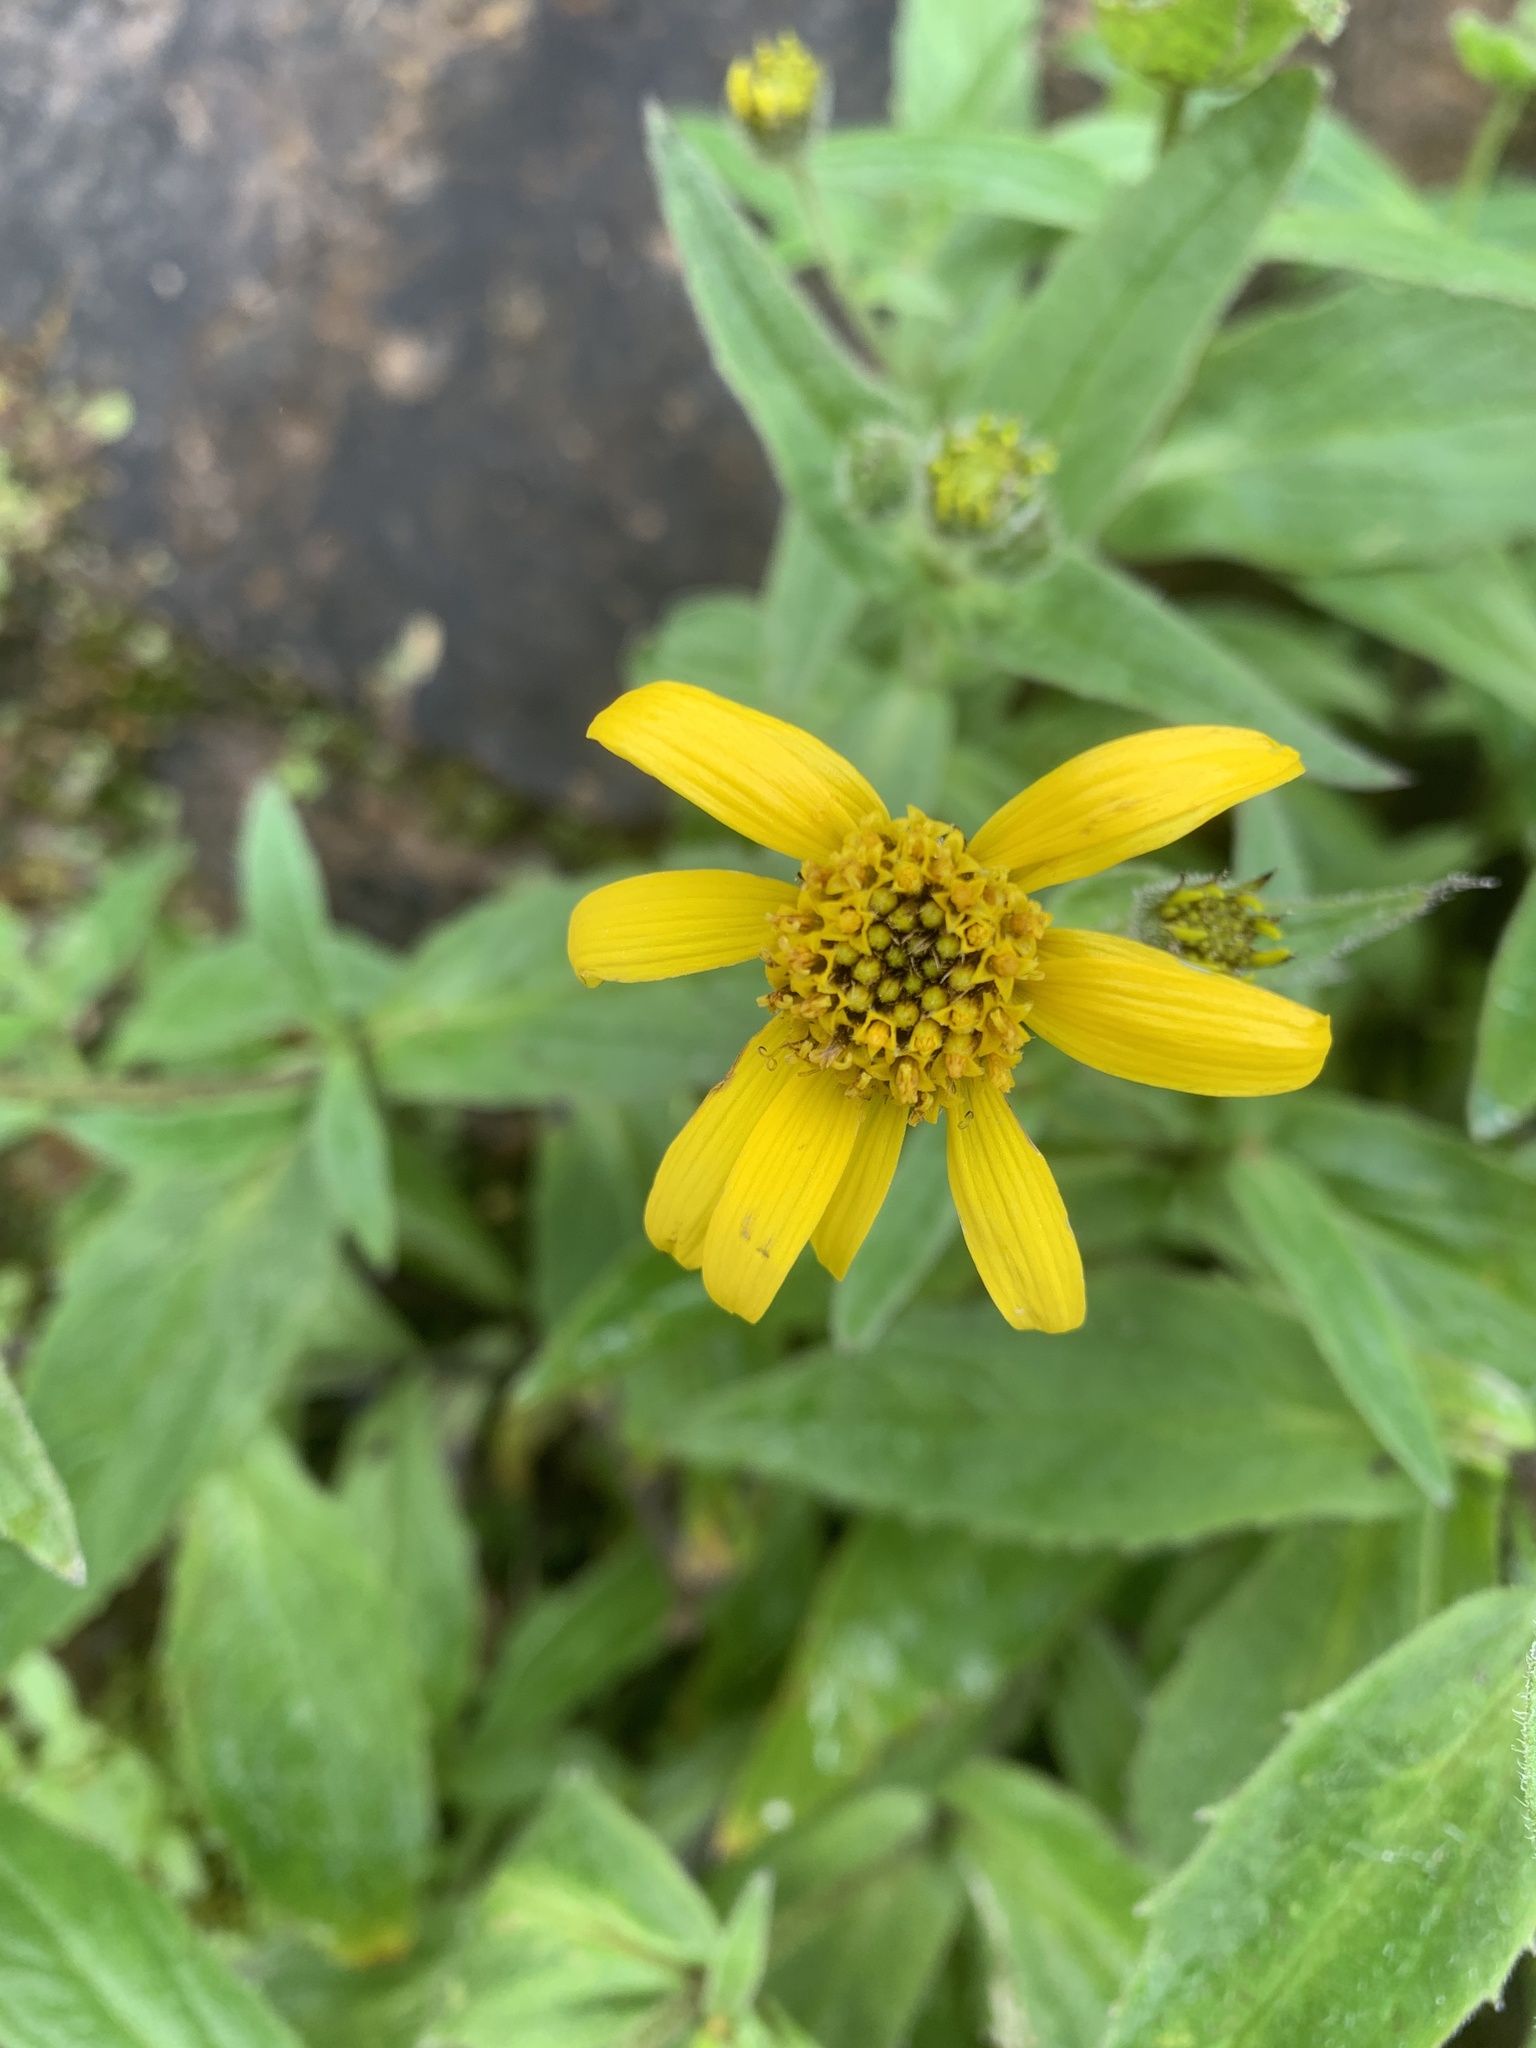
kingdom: Plantae
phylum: Tracheophyta
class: Magnoliopsida
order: Asterales
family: Asteraceae
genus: Arnica
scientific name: Arnica lanceolata
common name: Lance-leaved arnica
